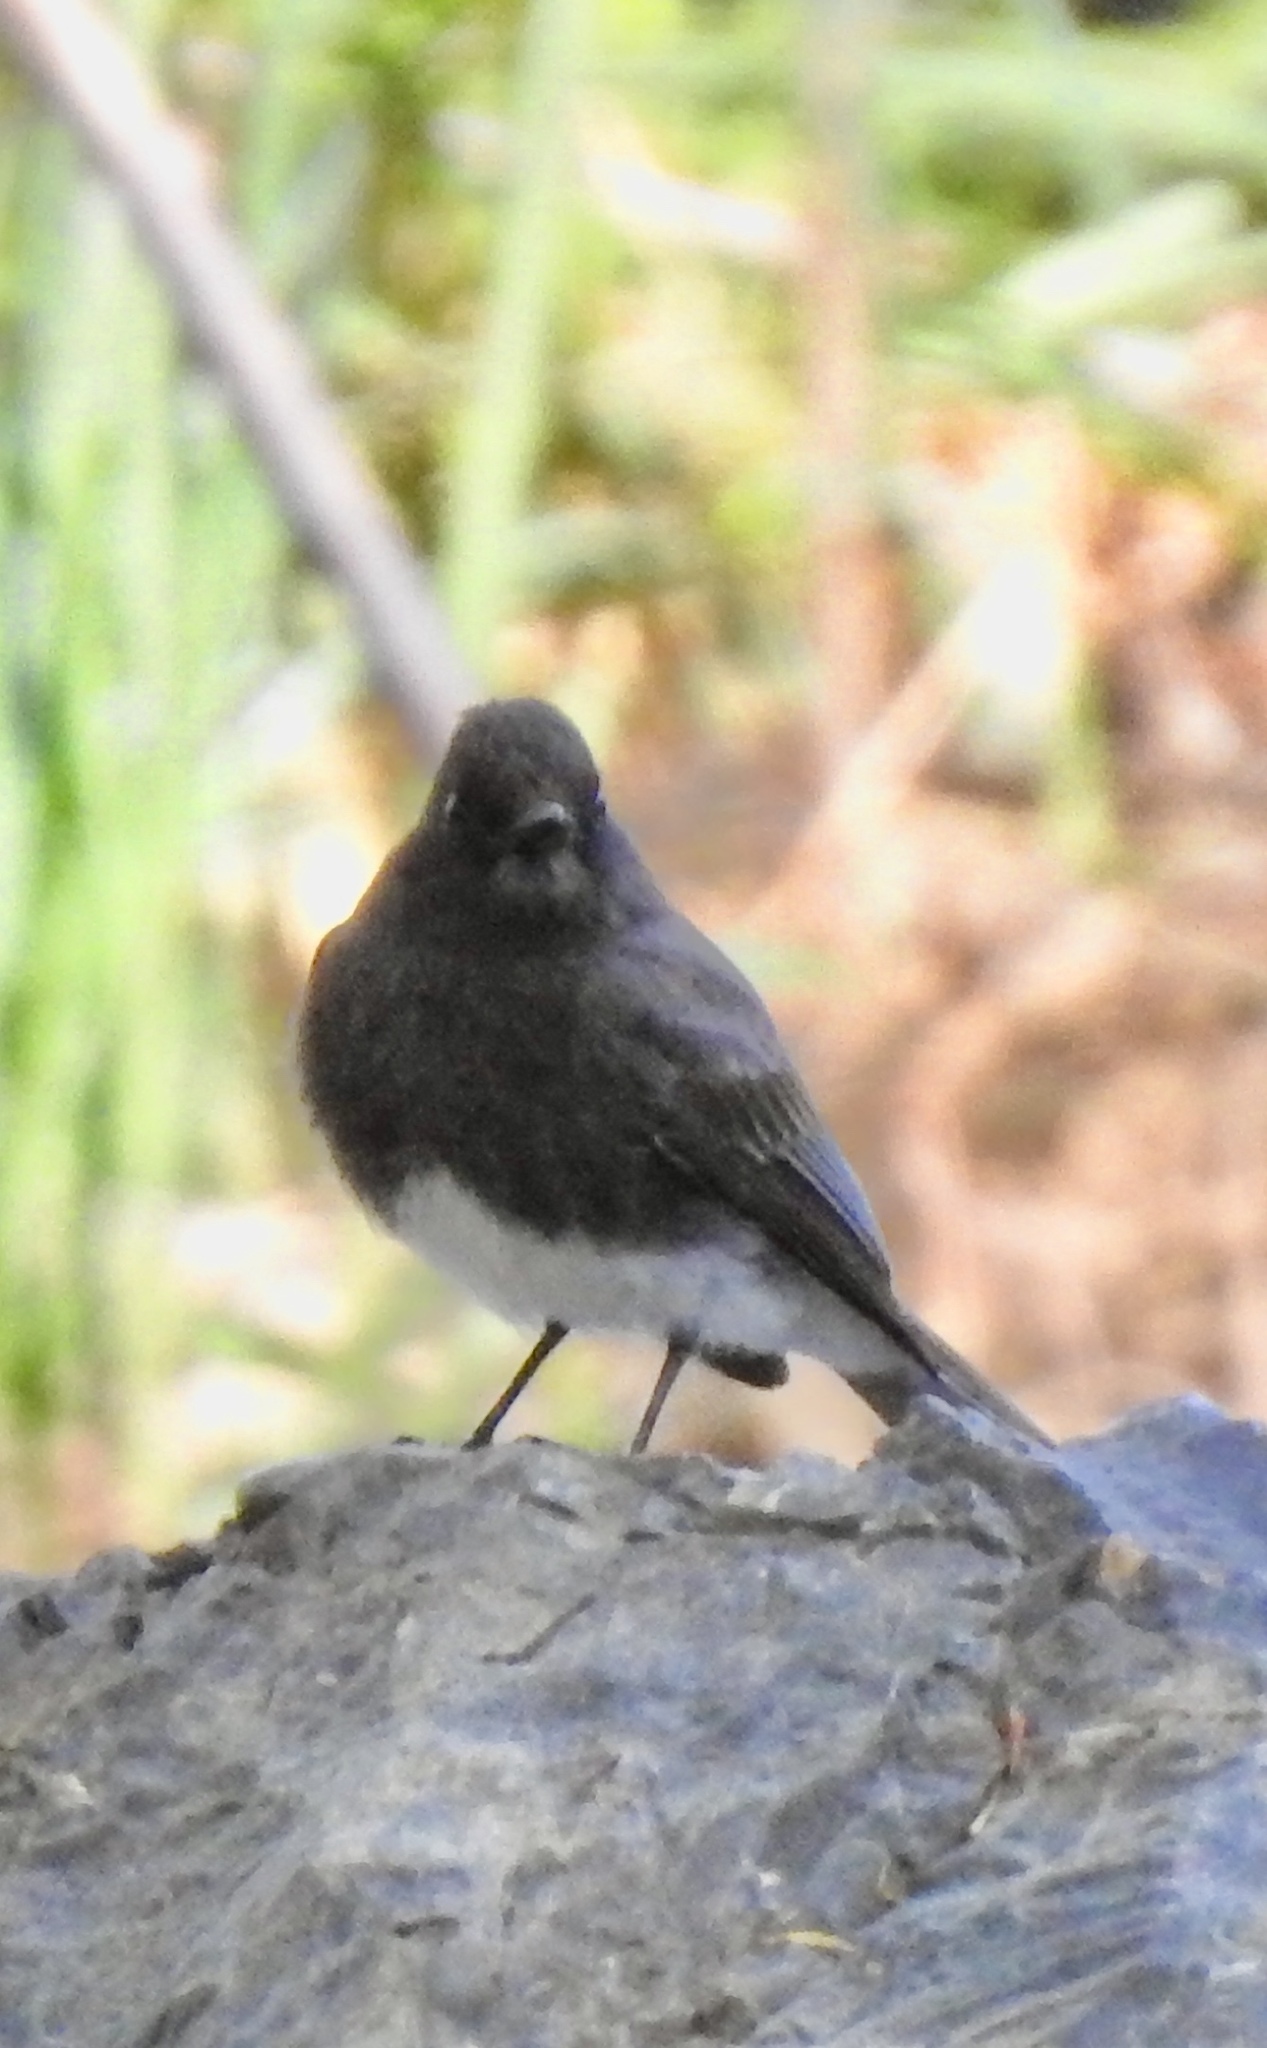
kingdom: Animalia
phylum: Chordata
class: Aves
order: Passeriformes
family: Tyrannidae
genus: Sayornis
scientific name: Sayornis nigricans
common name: Black phoebe
